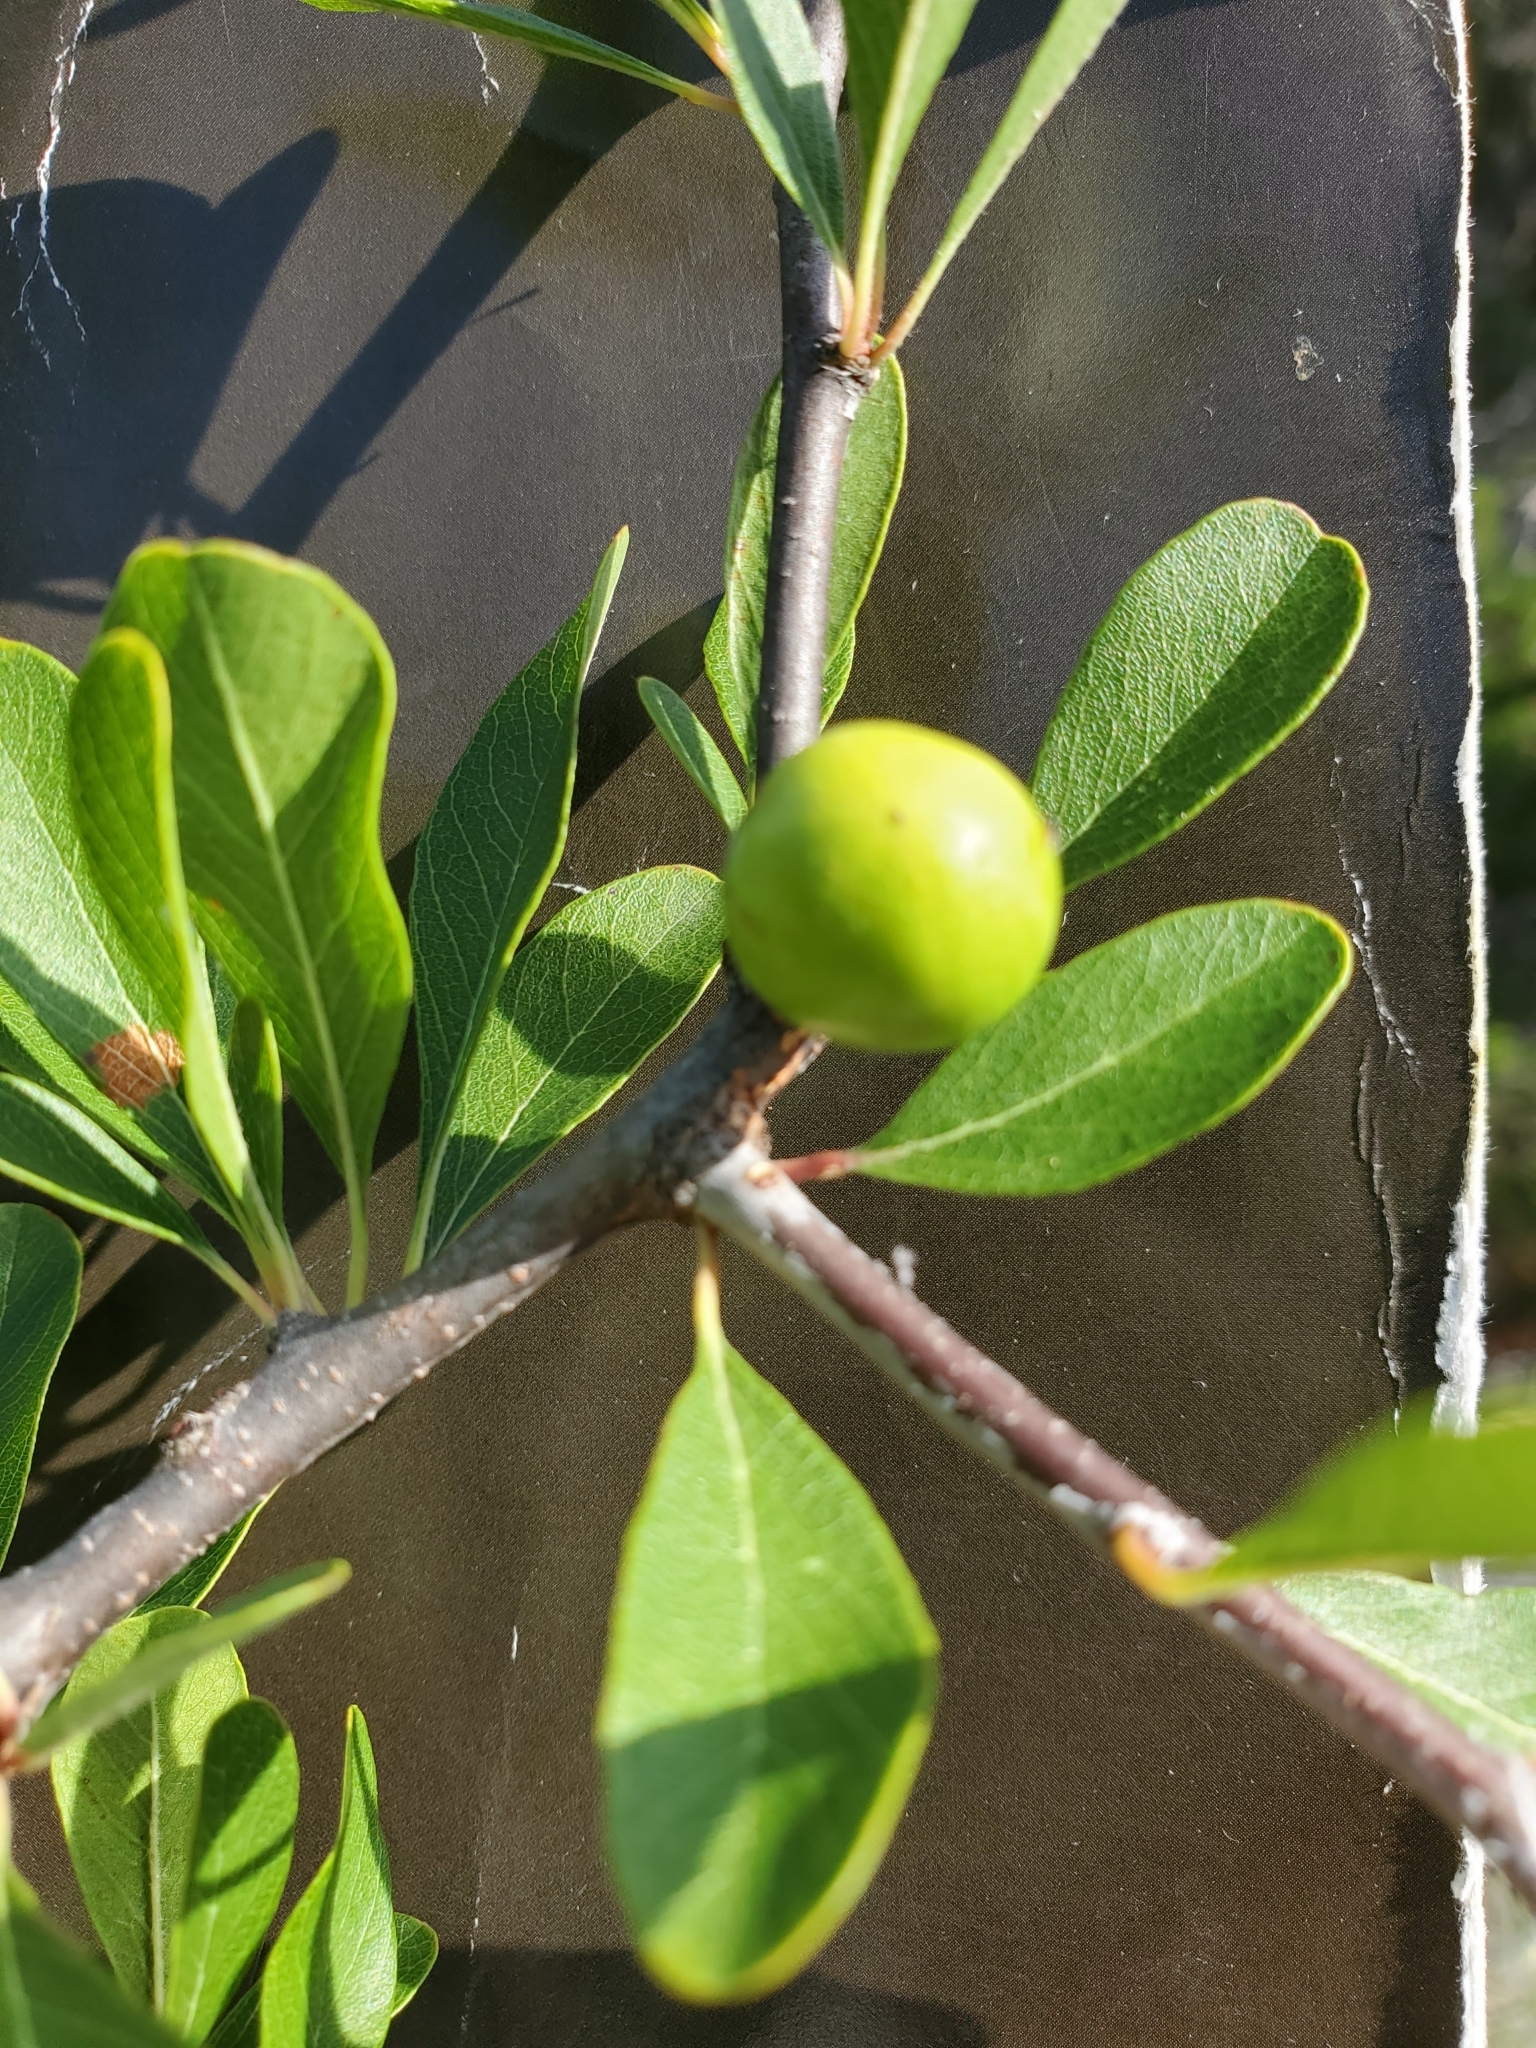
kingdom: Plantae
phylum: Tracheophyta
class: Magnoliopsida
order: Ericales
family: Sapotaceae
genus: Sideroxylon
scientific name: Sideroxylon lanuginosum
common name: Chittamwood
